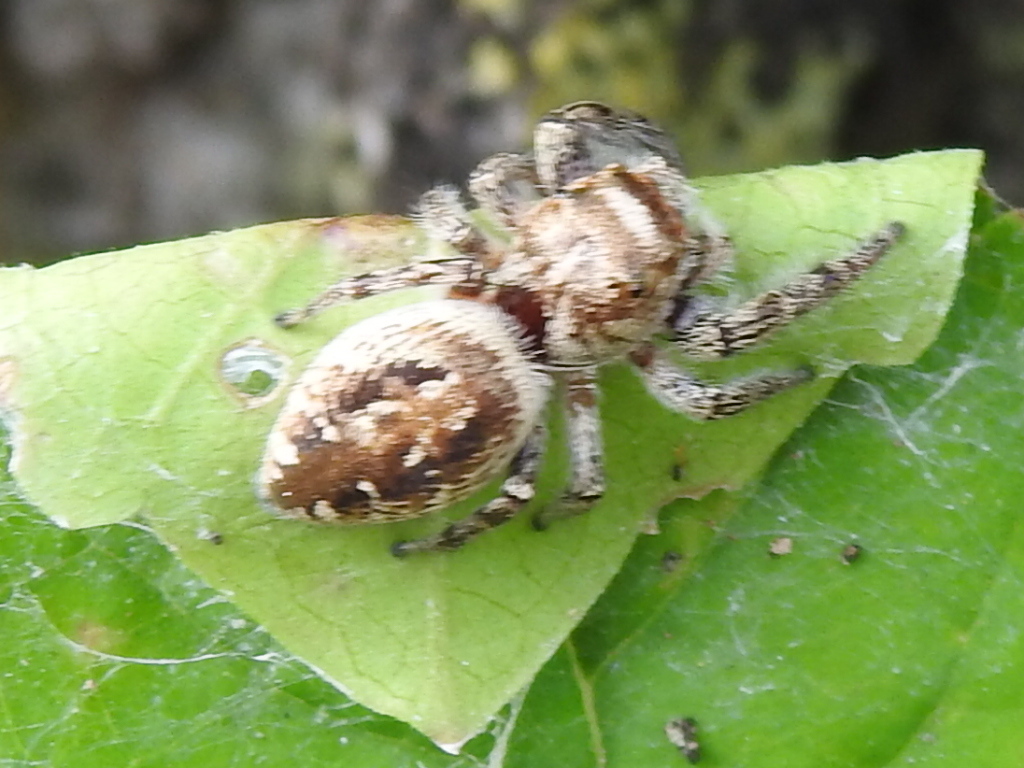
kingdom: Animalia
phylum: Arthropoda
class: Arachnida
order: Araneae
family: Salticidae
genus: Eris
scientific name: Eris militaris
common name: Bronze jumper
